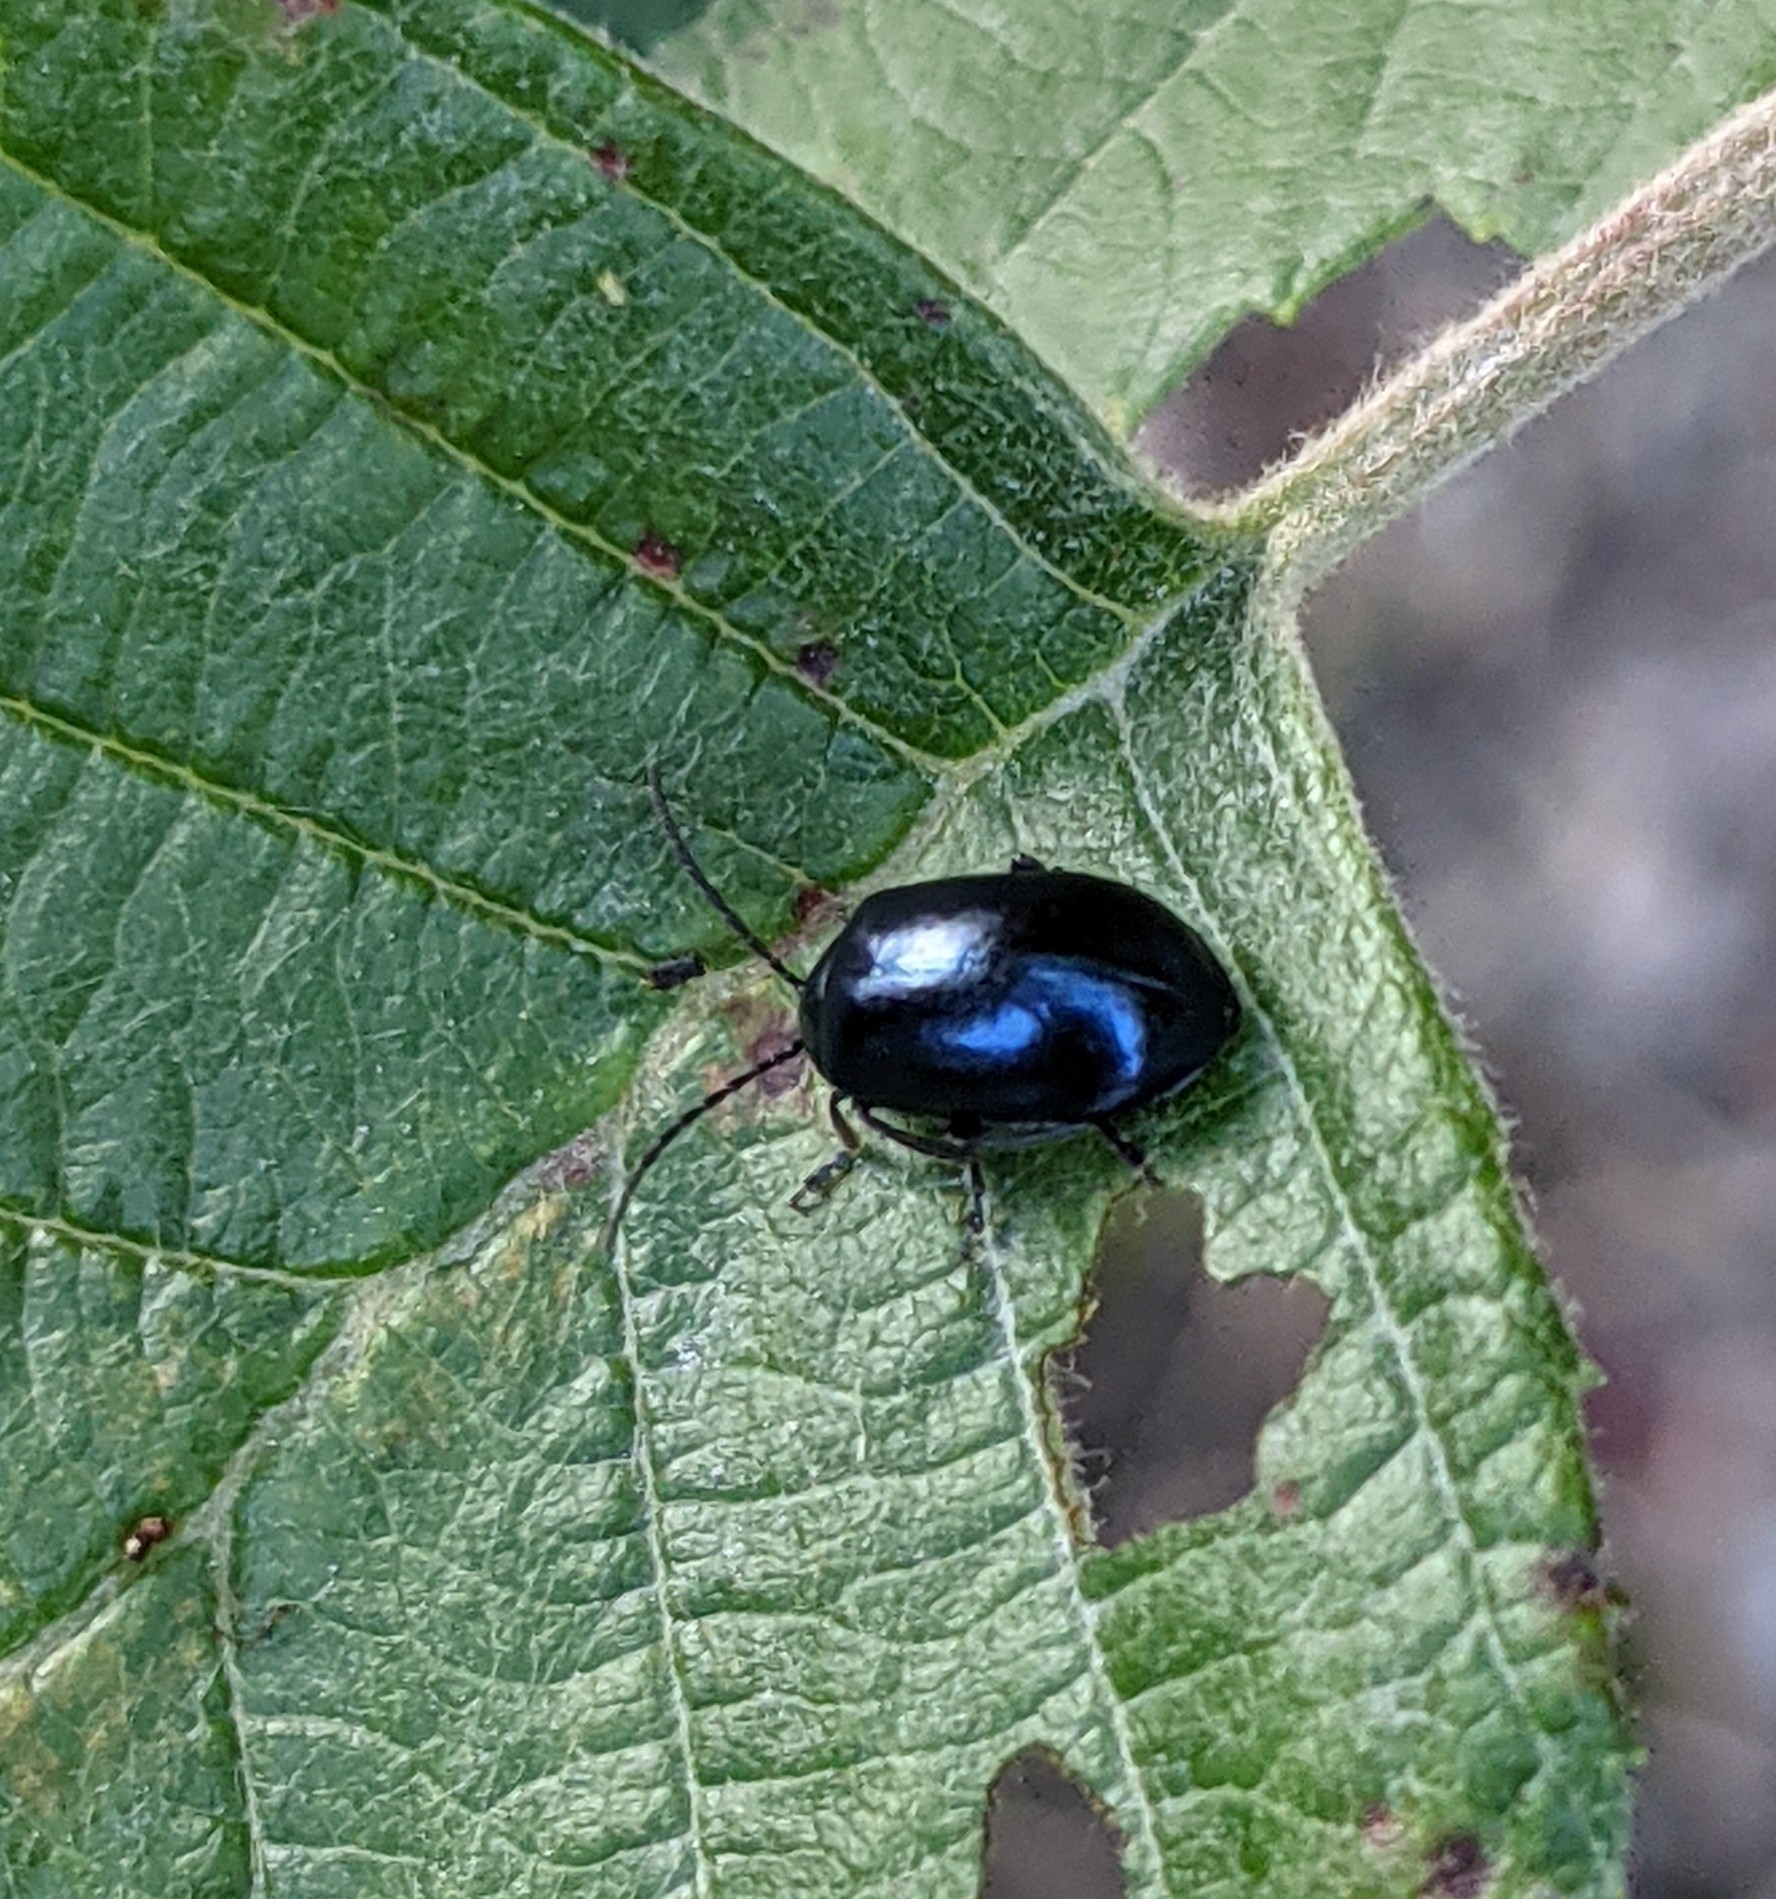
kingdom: Animalia
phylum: Arthropoda
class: Insecta
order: Coleoptera
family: Chrysomelidae
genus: Agelastica
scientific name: Agelastica alni
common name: Alder leaf beetle
